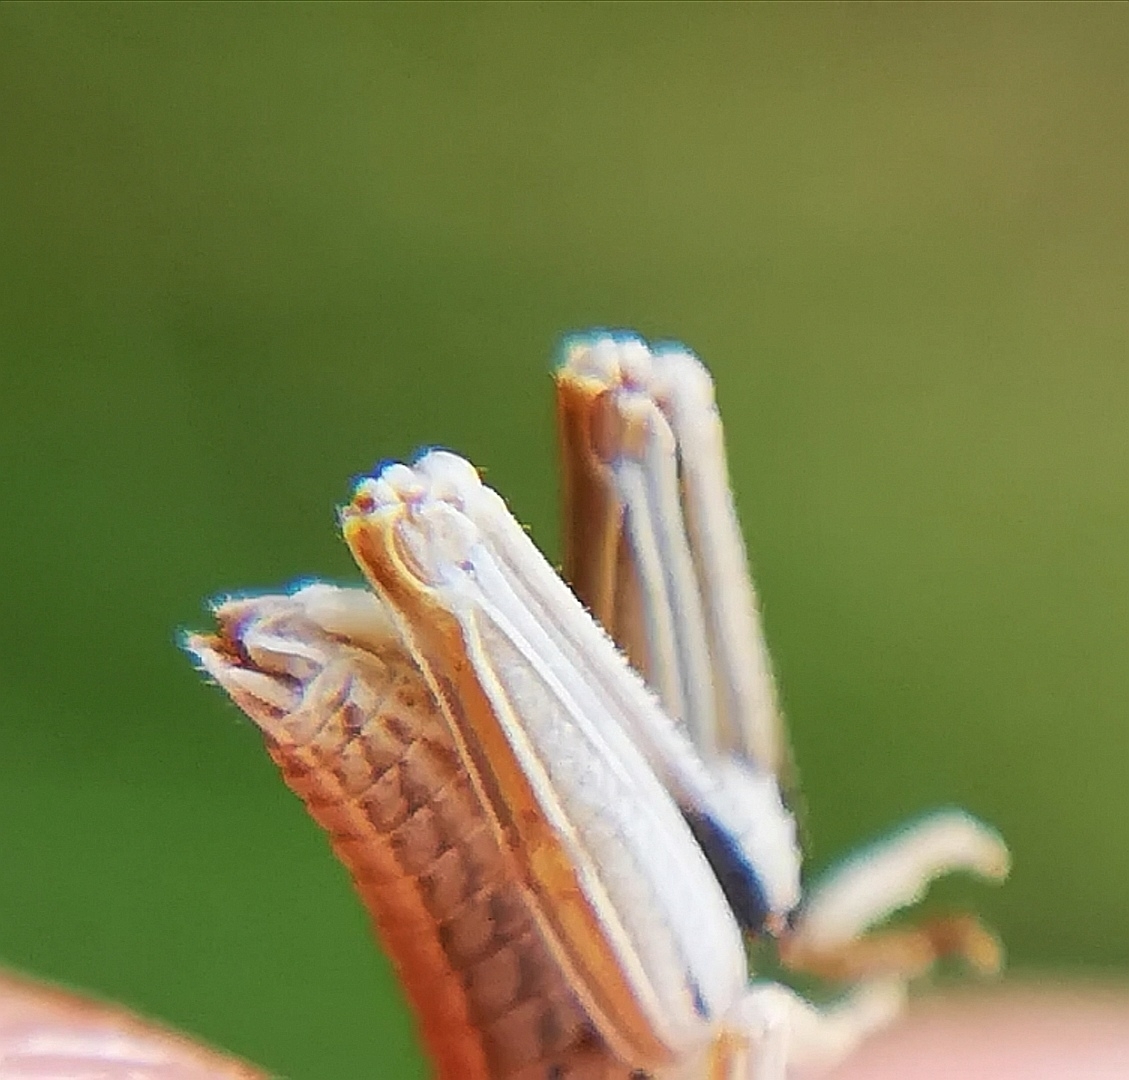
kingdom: Animalia
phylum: Arthropoda
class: Insecta
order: Orthoptera
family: Acrididae
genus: Euthystira
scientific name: Euthystira brachyptera
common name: Small gold grasshopper
